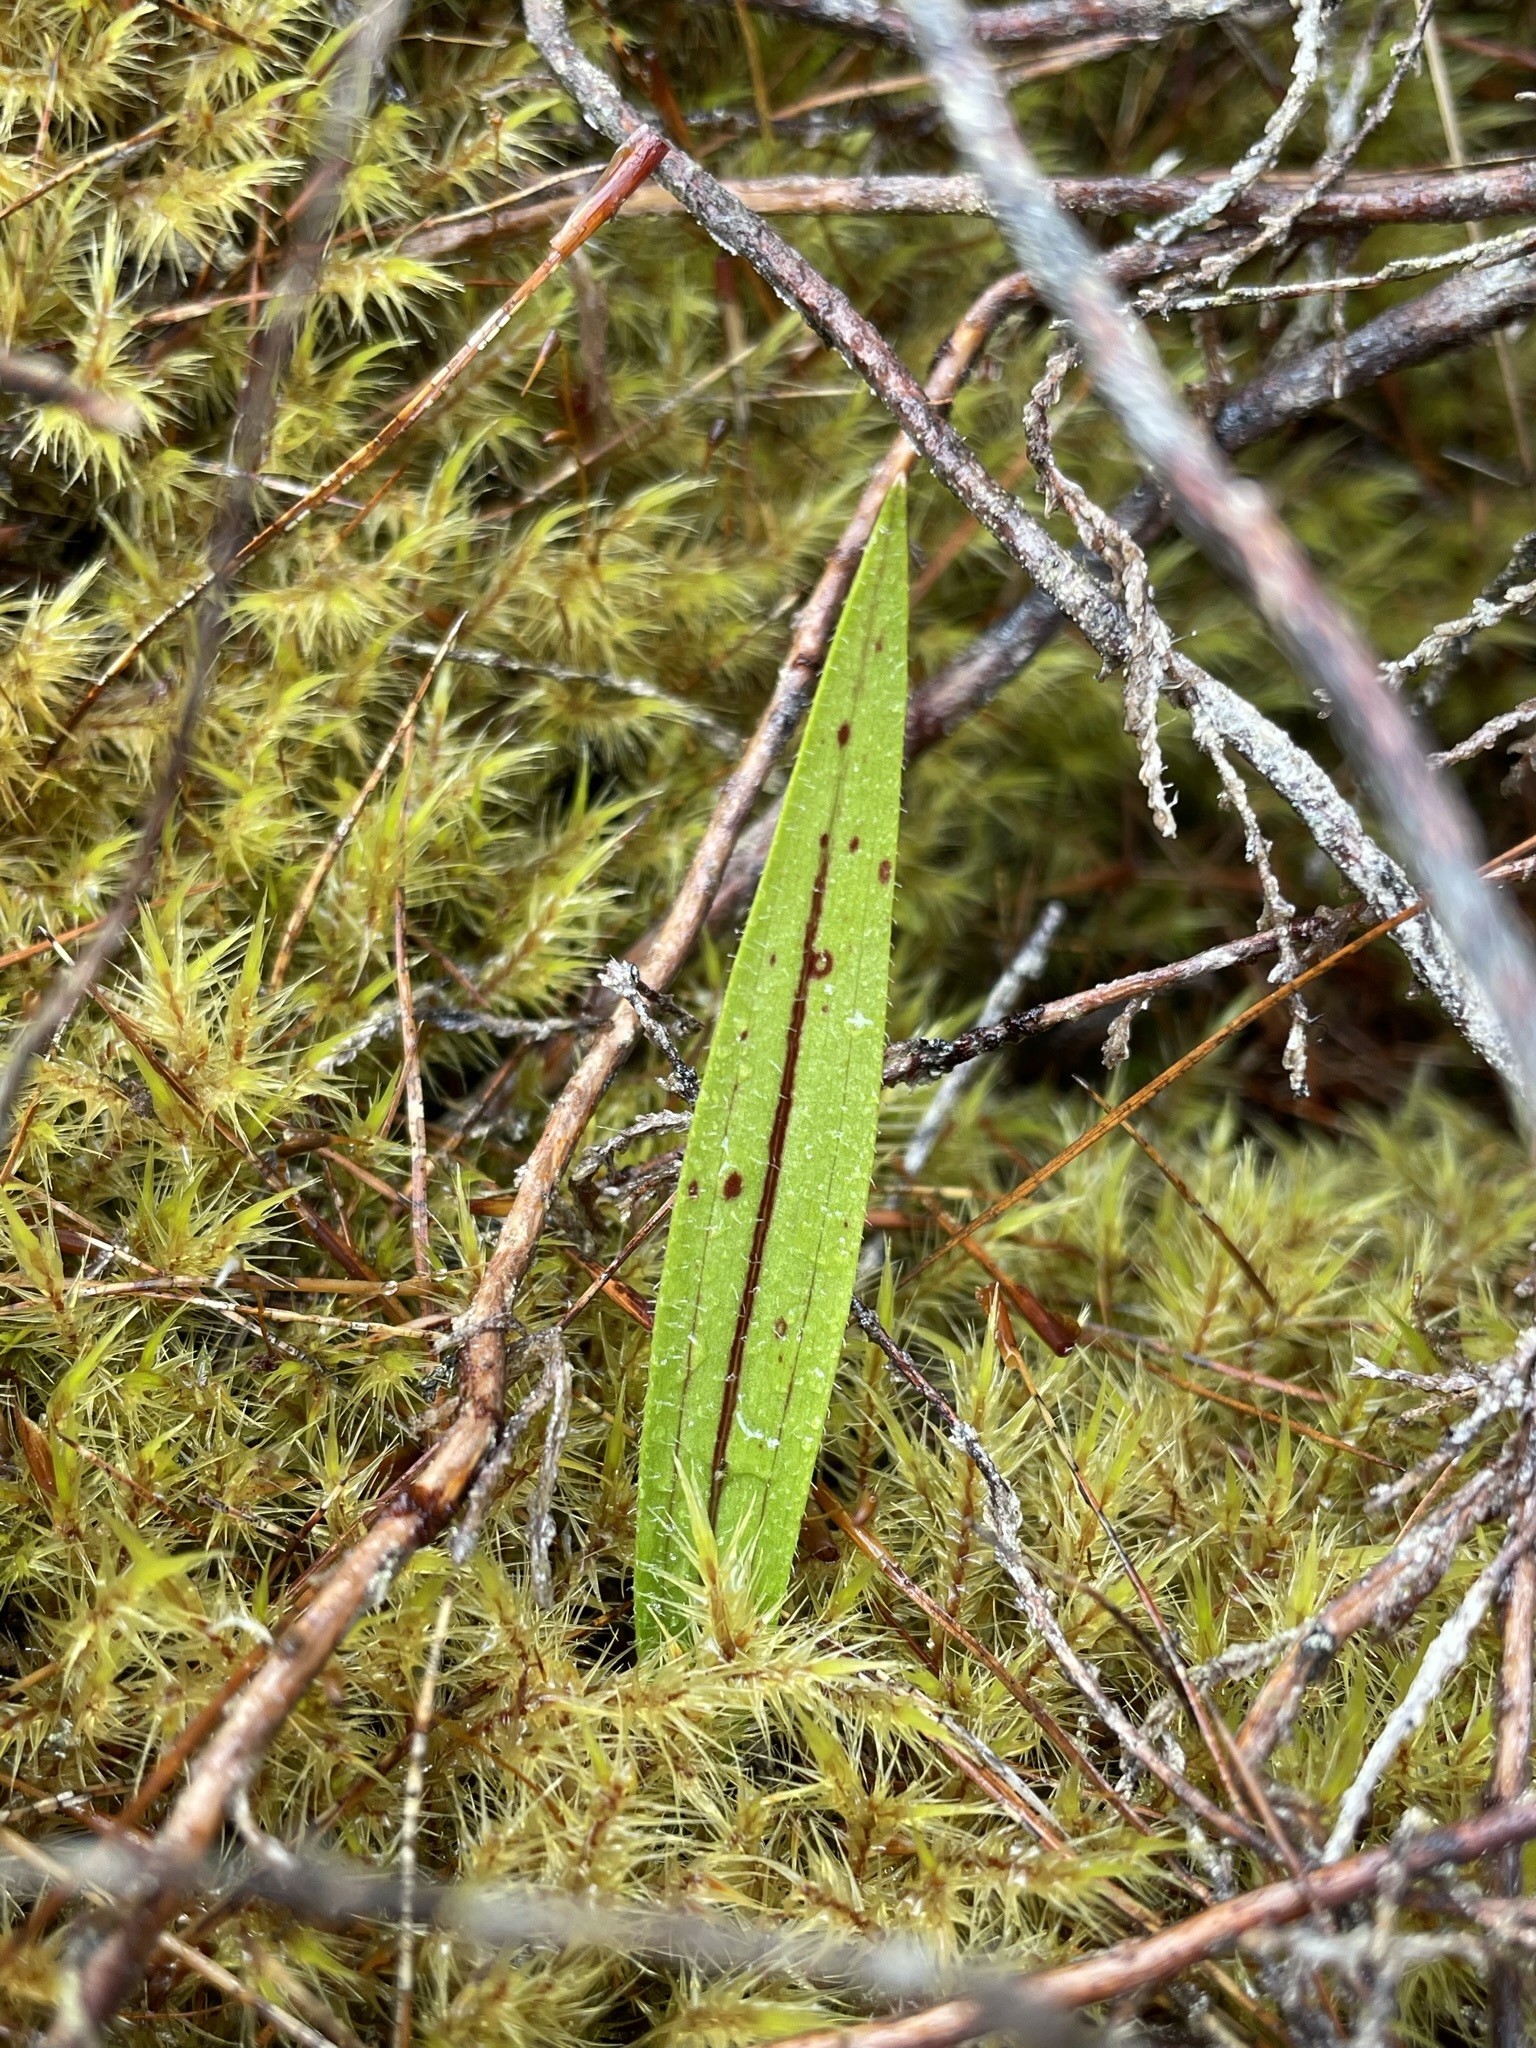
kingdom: Plantae
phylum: Tracheophyta
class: Liliopsida
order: Asparagales
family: Orchidaceae
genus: Aporostylis
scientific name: Aporostylis bifolia
